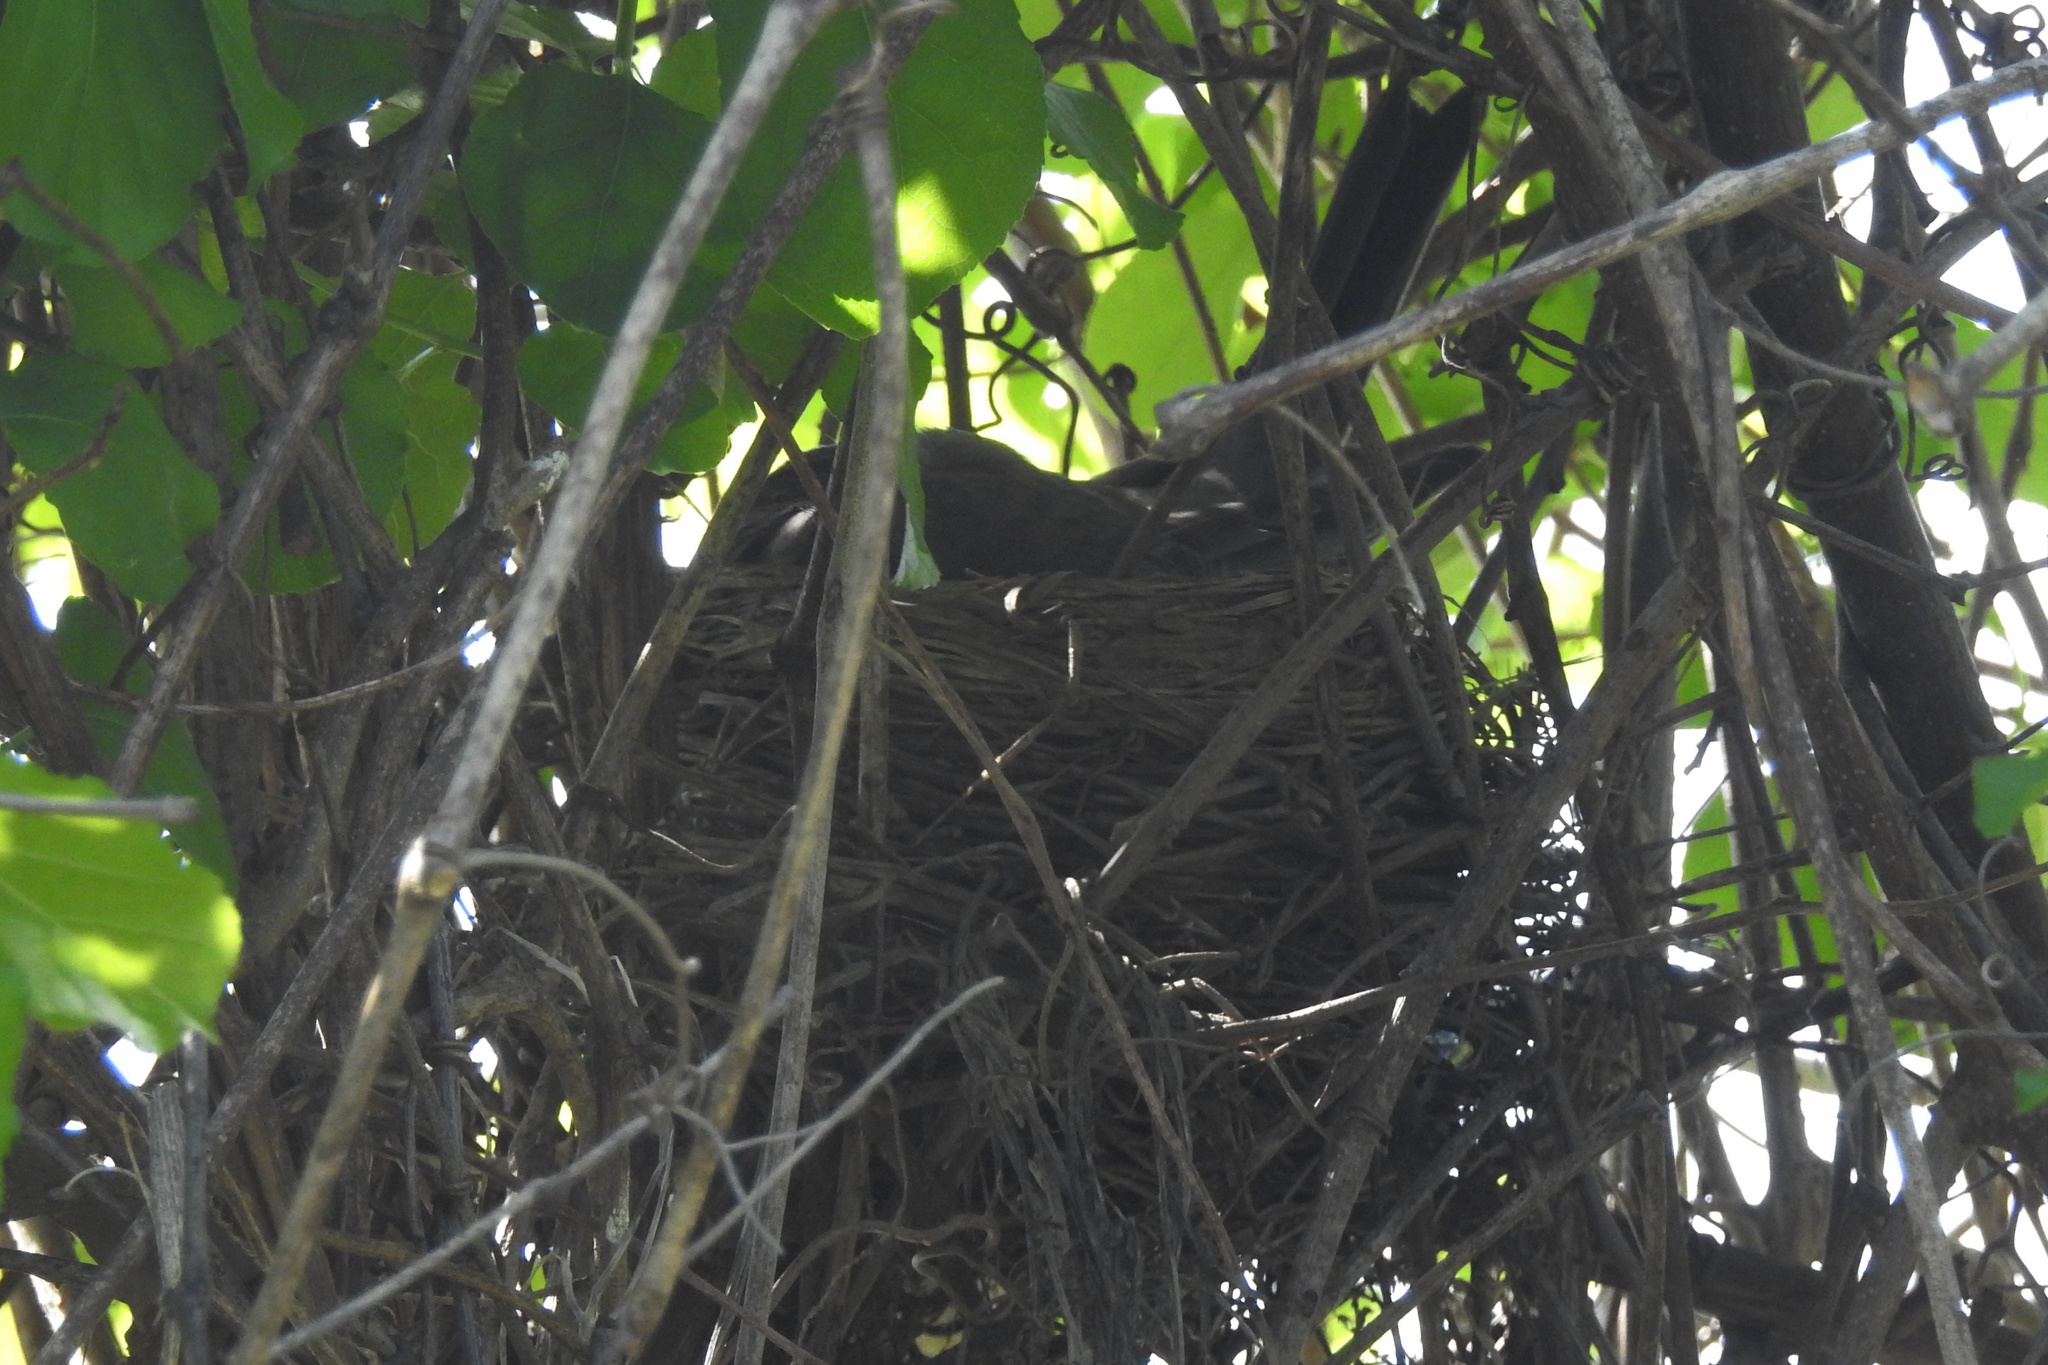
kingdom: Animalia
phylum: Chordata
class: Aves
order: Passeriformes
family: Turdidae
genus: Turdus
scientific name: Turdus migratorius
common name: American robin
